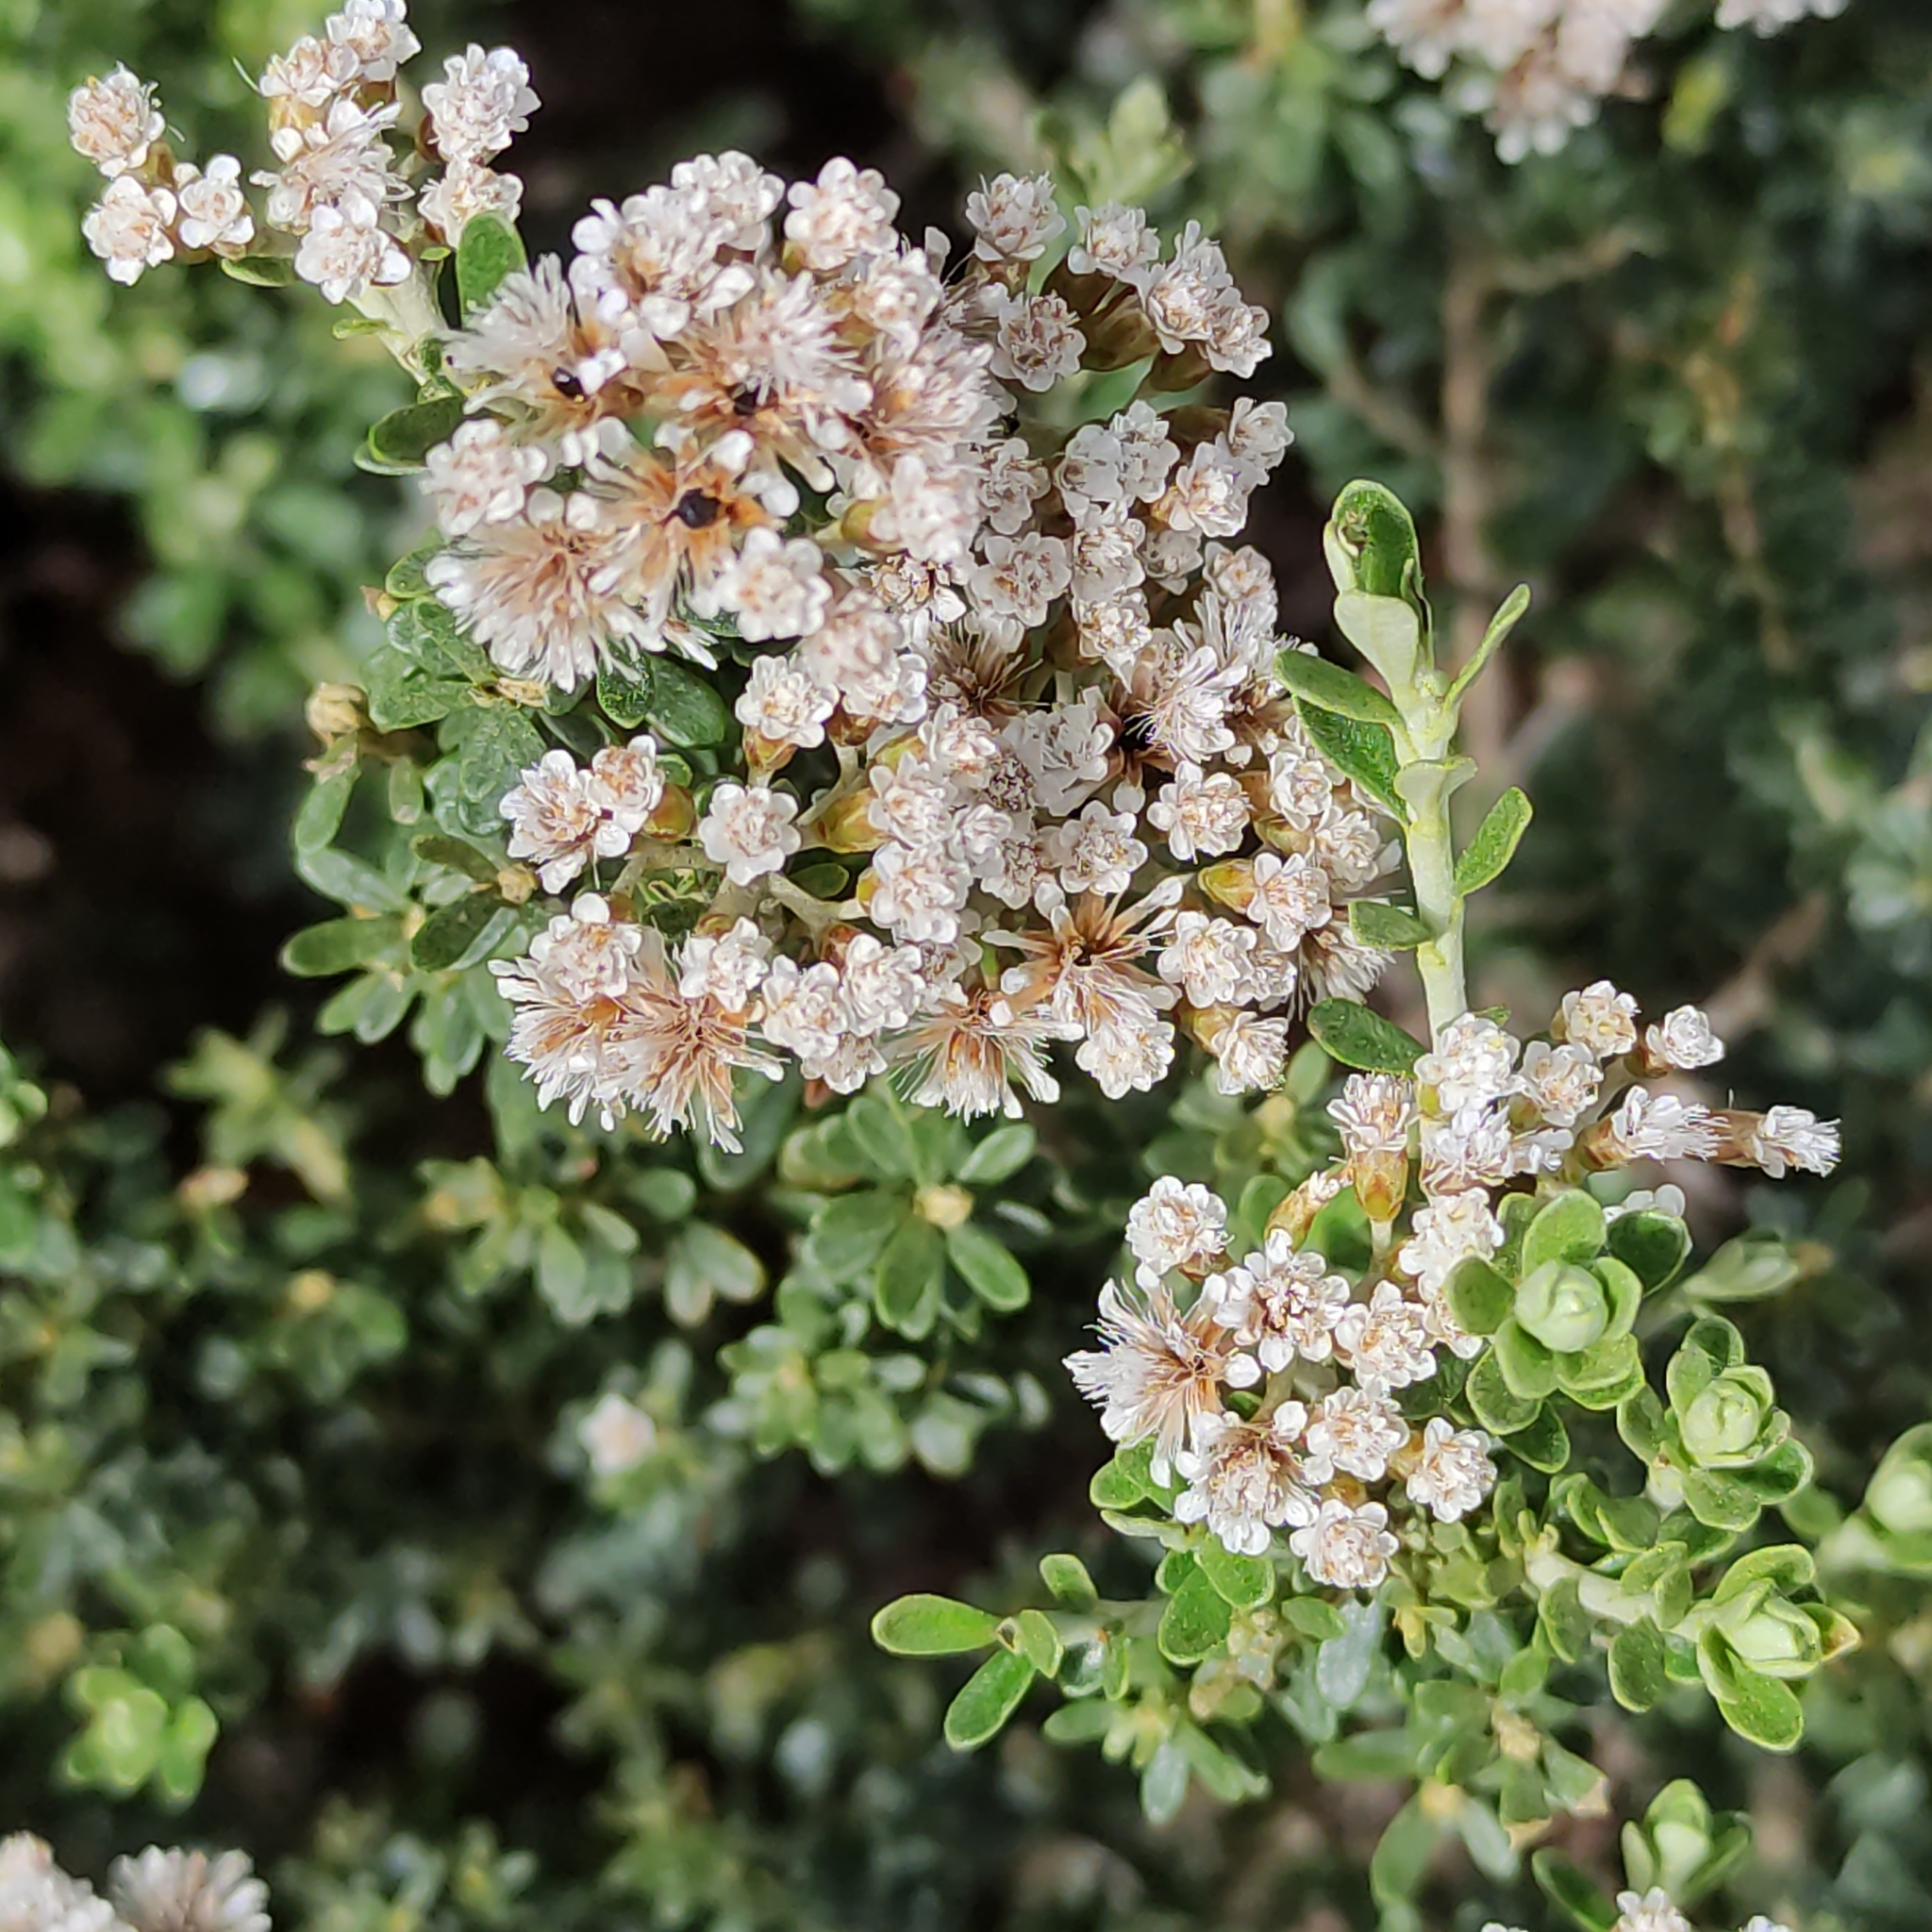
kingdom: Plantae
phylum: Tracheophyta
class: Magnoliopsida
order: Asterales
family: Asteraceae
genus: Ozothamnus
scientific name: Ozothamnus leptophyllus
